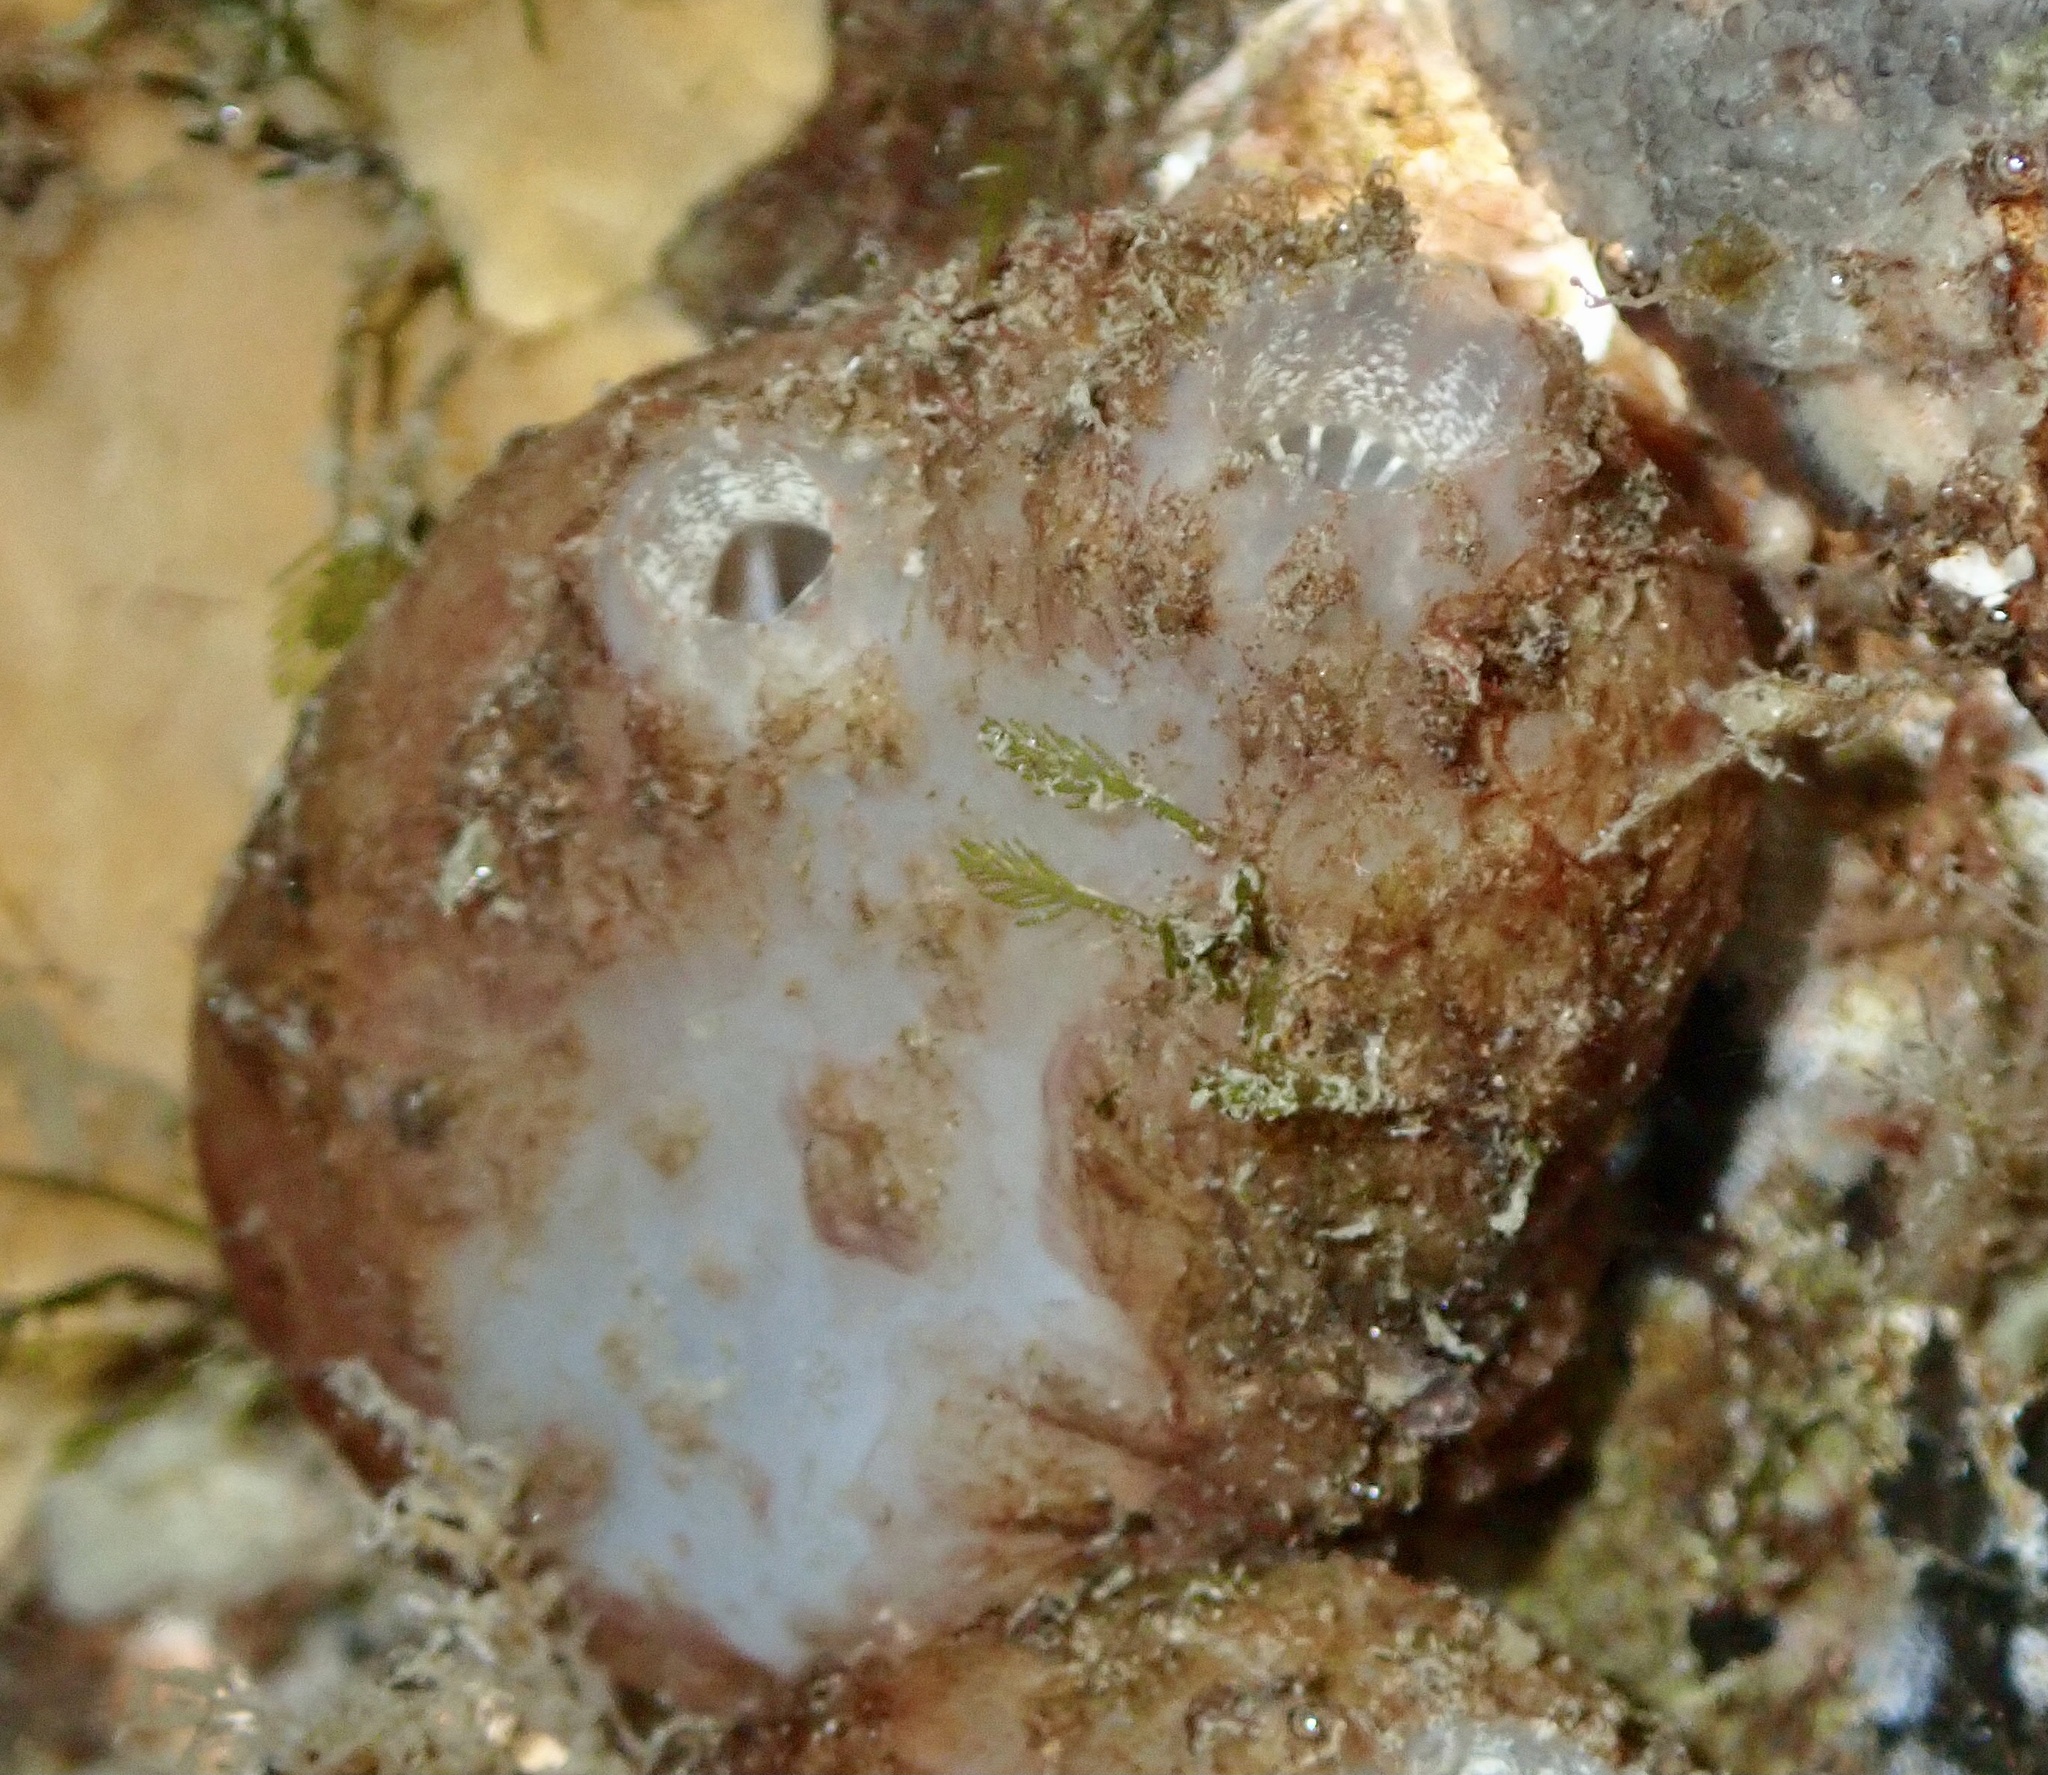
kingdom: Animalia
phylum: Chordata
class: Ascidiacea
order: Phlebobranchia
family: Ascidiidae
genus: Ascidiella
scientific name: Ascidiella aspersa
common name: Dirty sea-squirt
